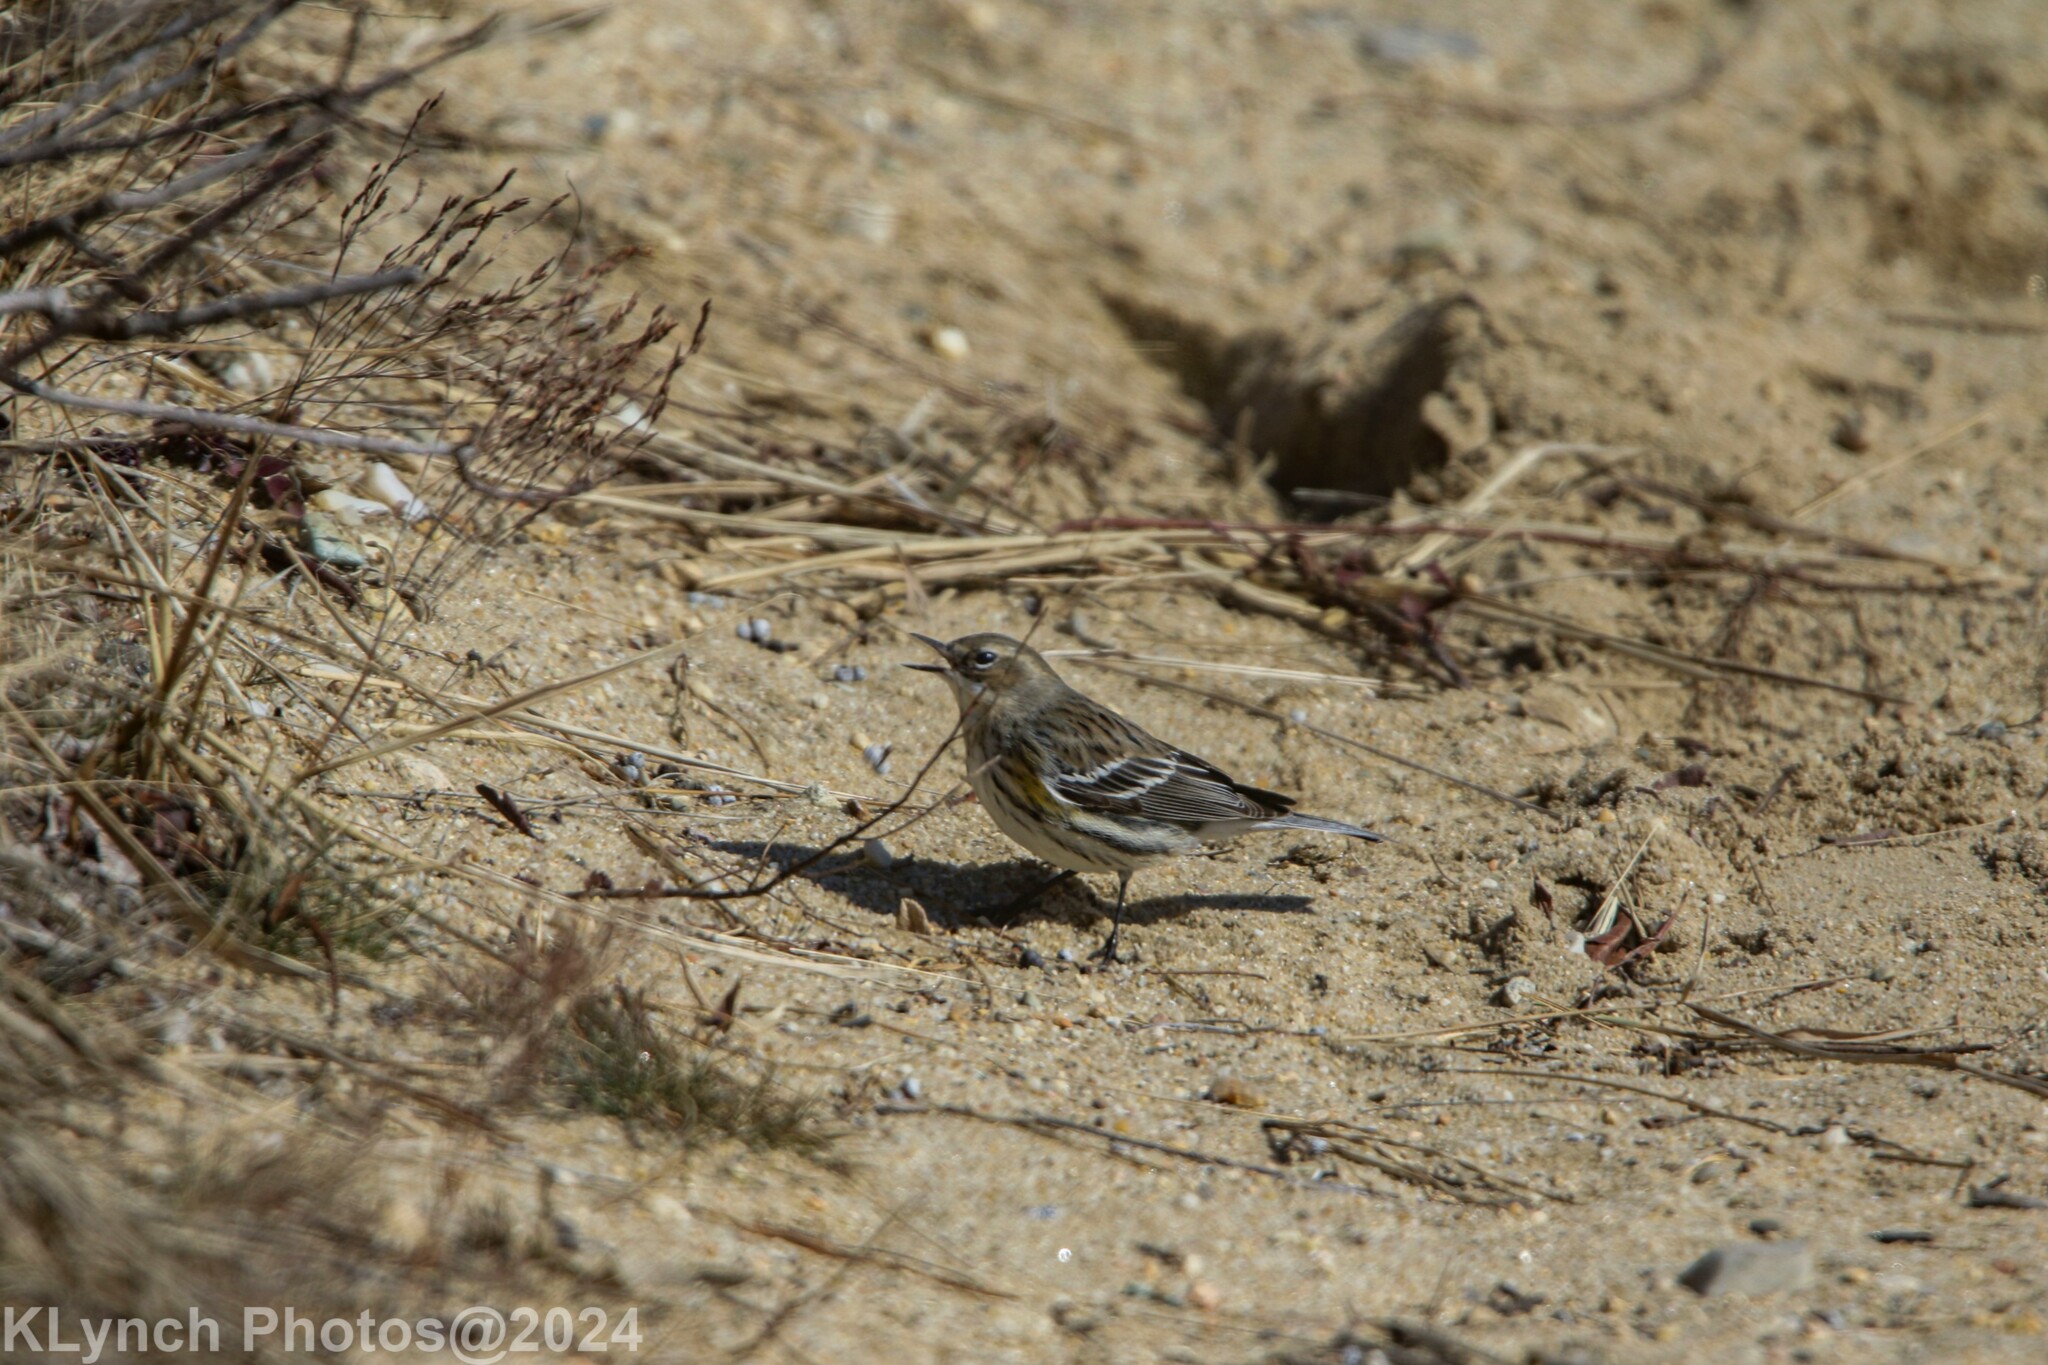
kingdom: Animalia
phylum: Chordata
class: Aves
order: Passeriformes
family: Parulidae
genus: Setophaga
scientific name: Setophaga coronata
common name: Myrtle warbler
